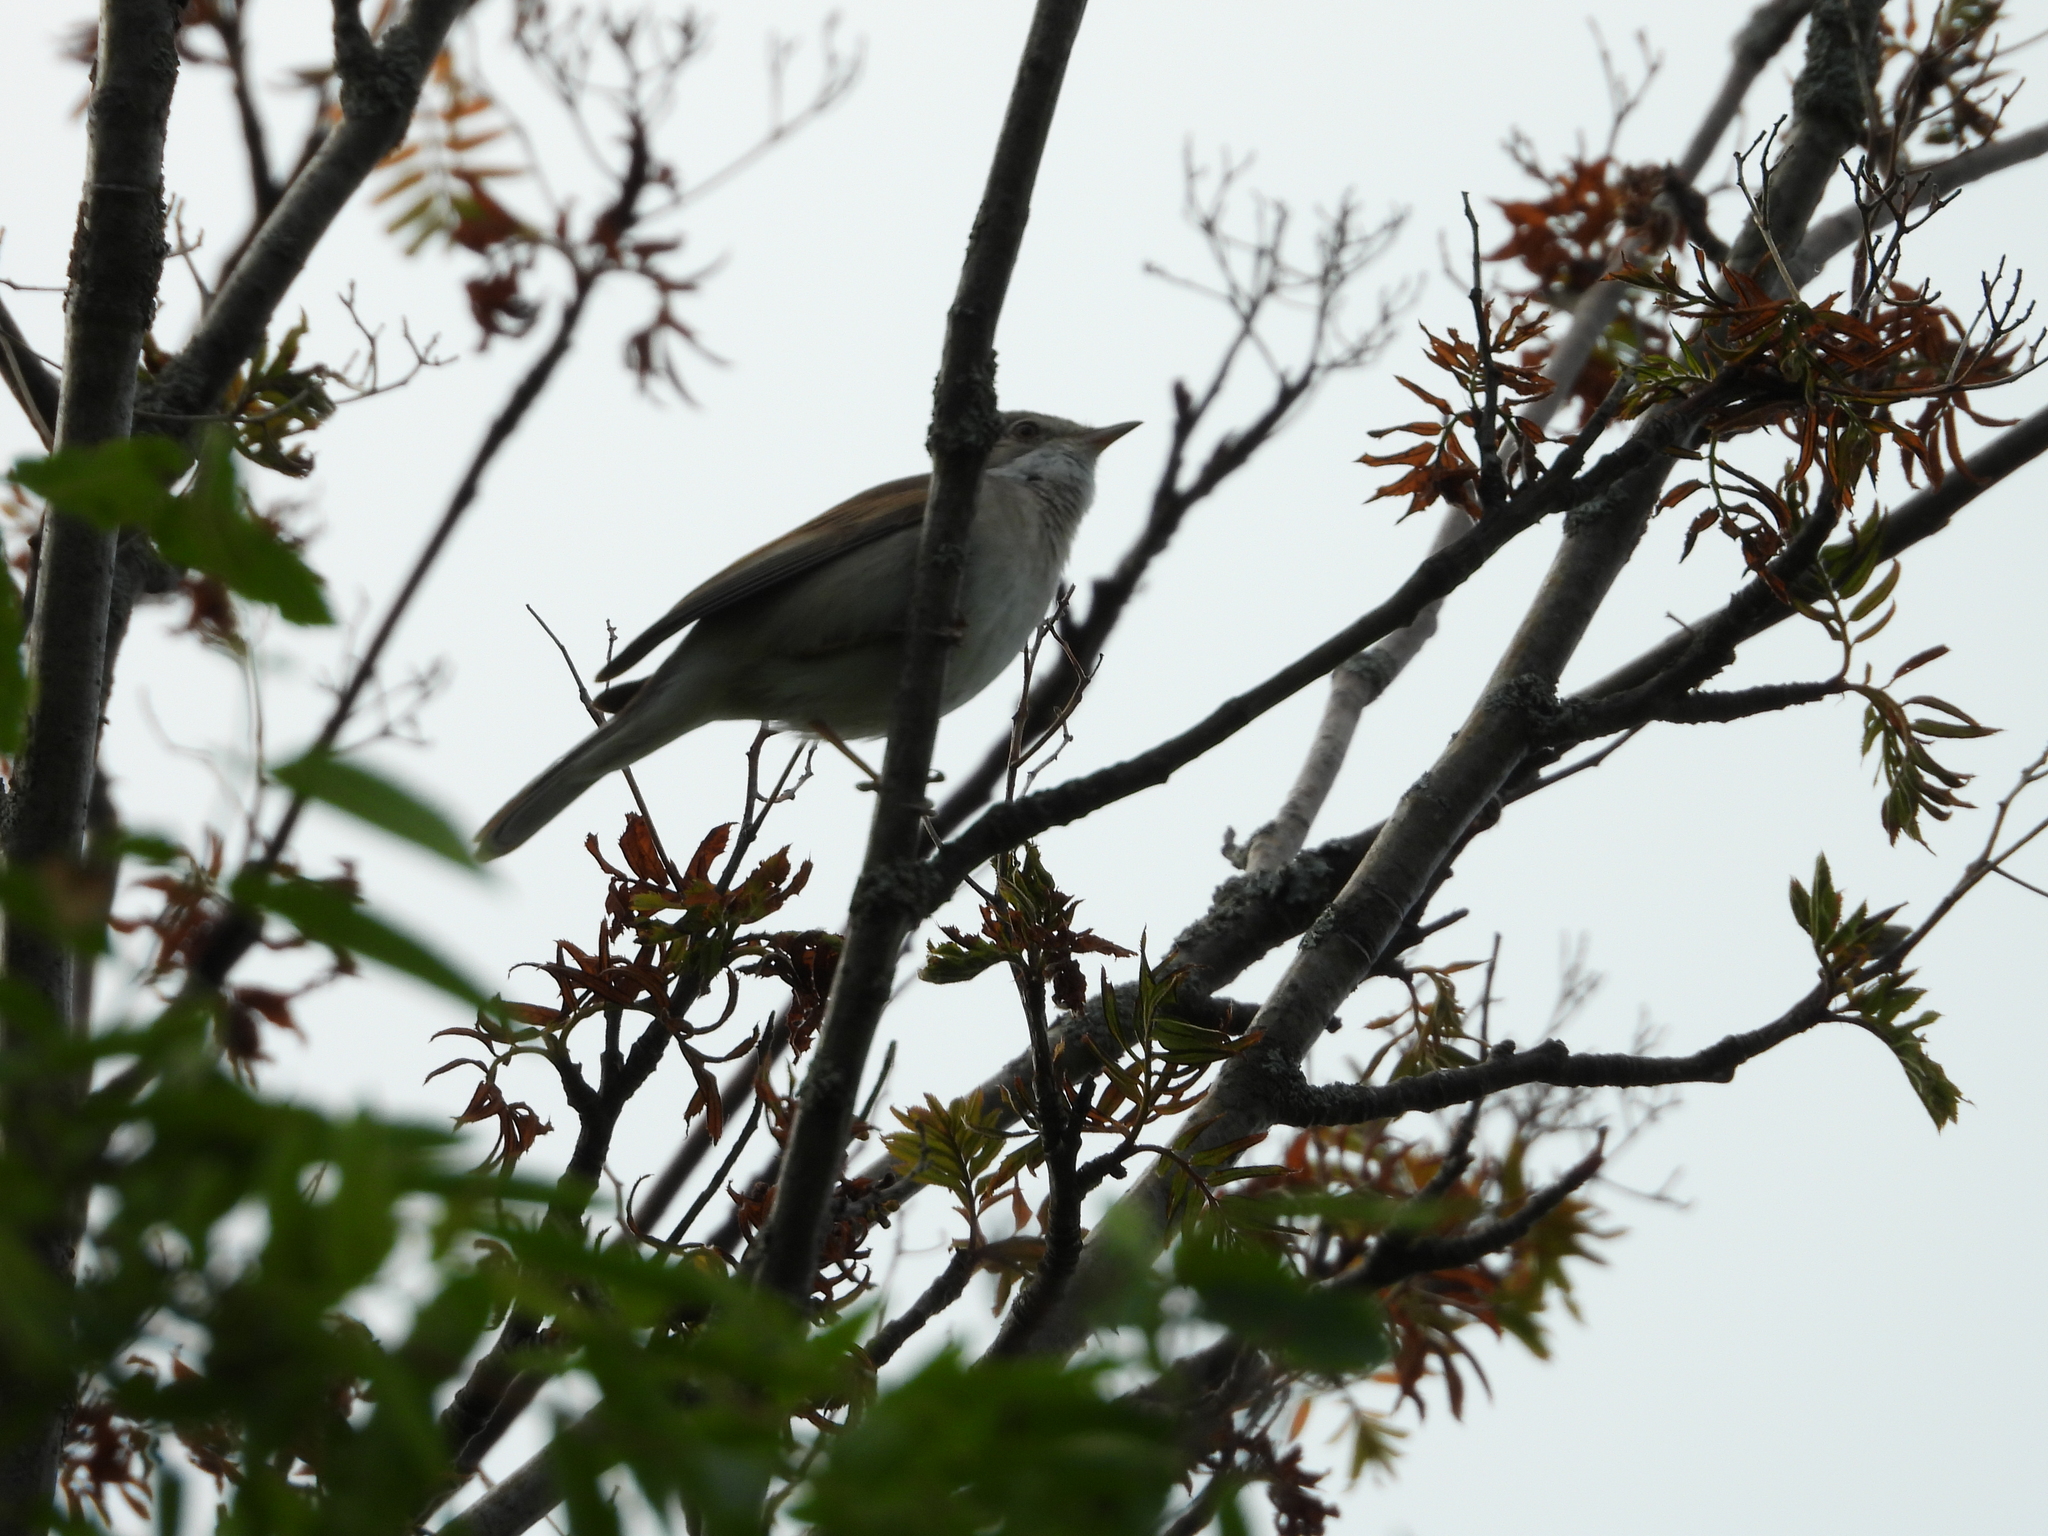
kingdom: Animalia
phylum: Chordata
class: Aves
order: Passeriformes
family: Sylviidae
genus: Sylvia
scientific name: Sylvia communis
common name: Common whitethroat
